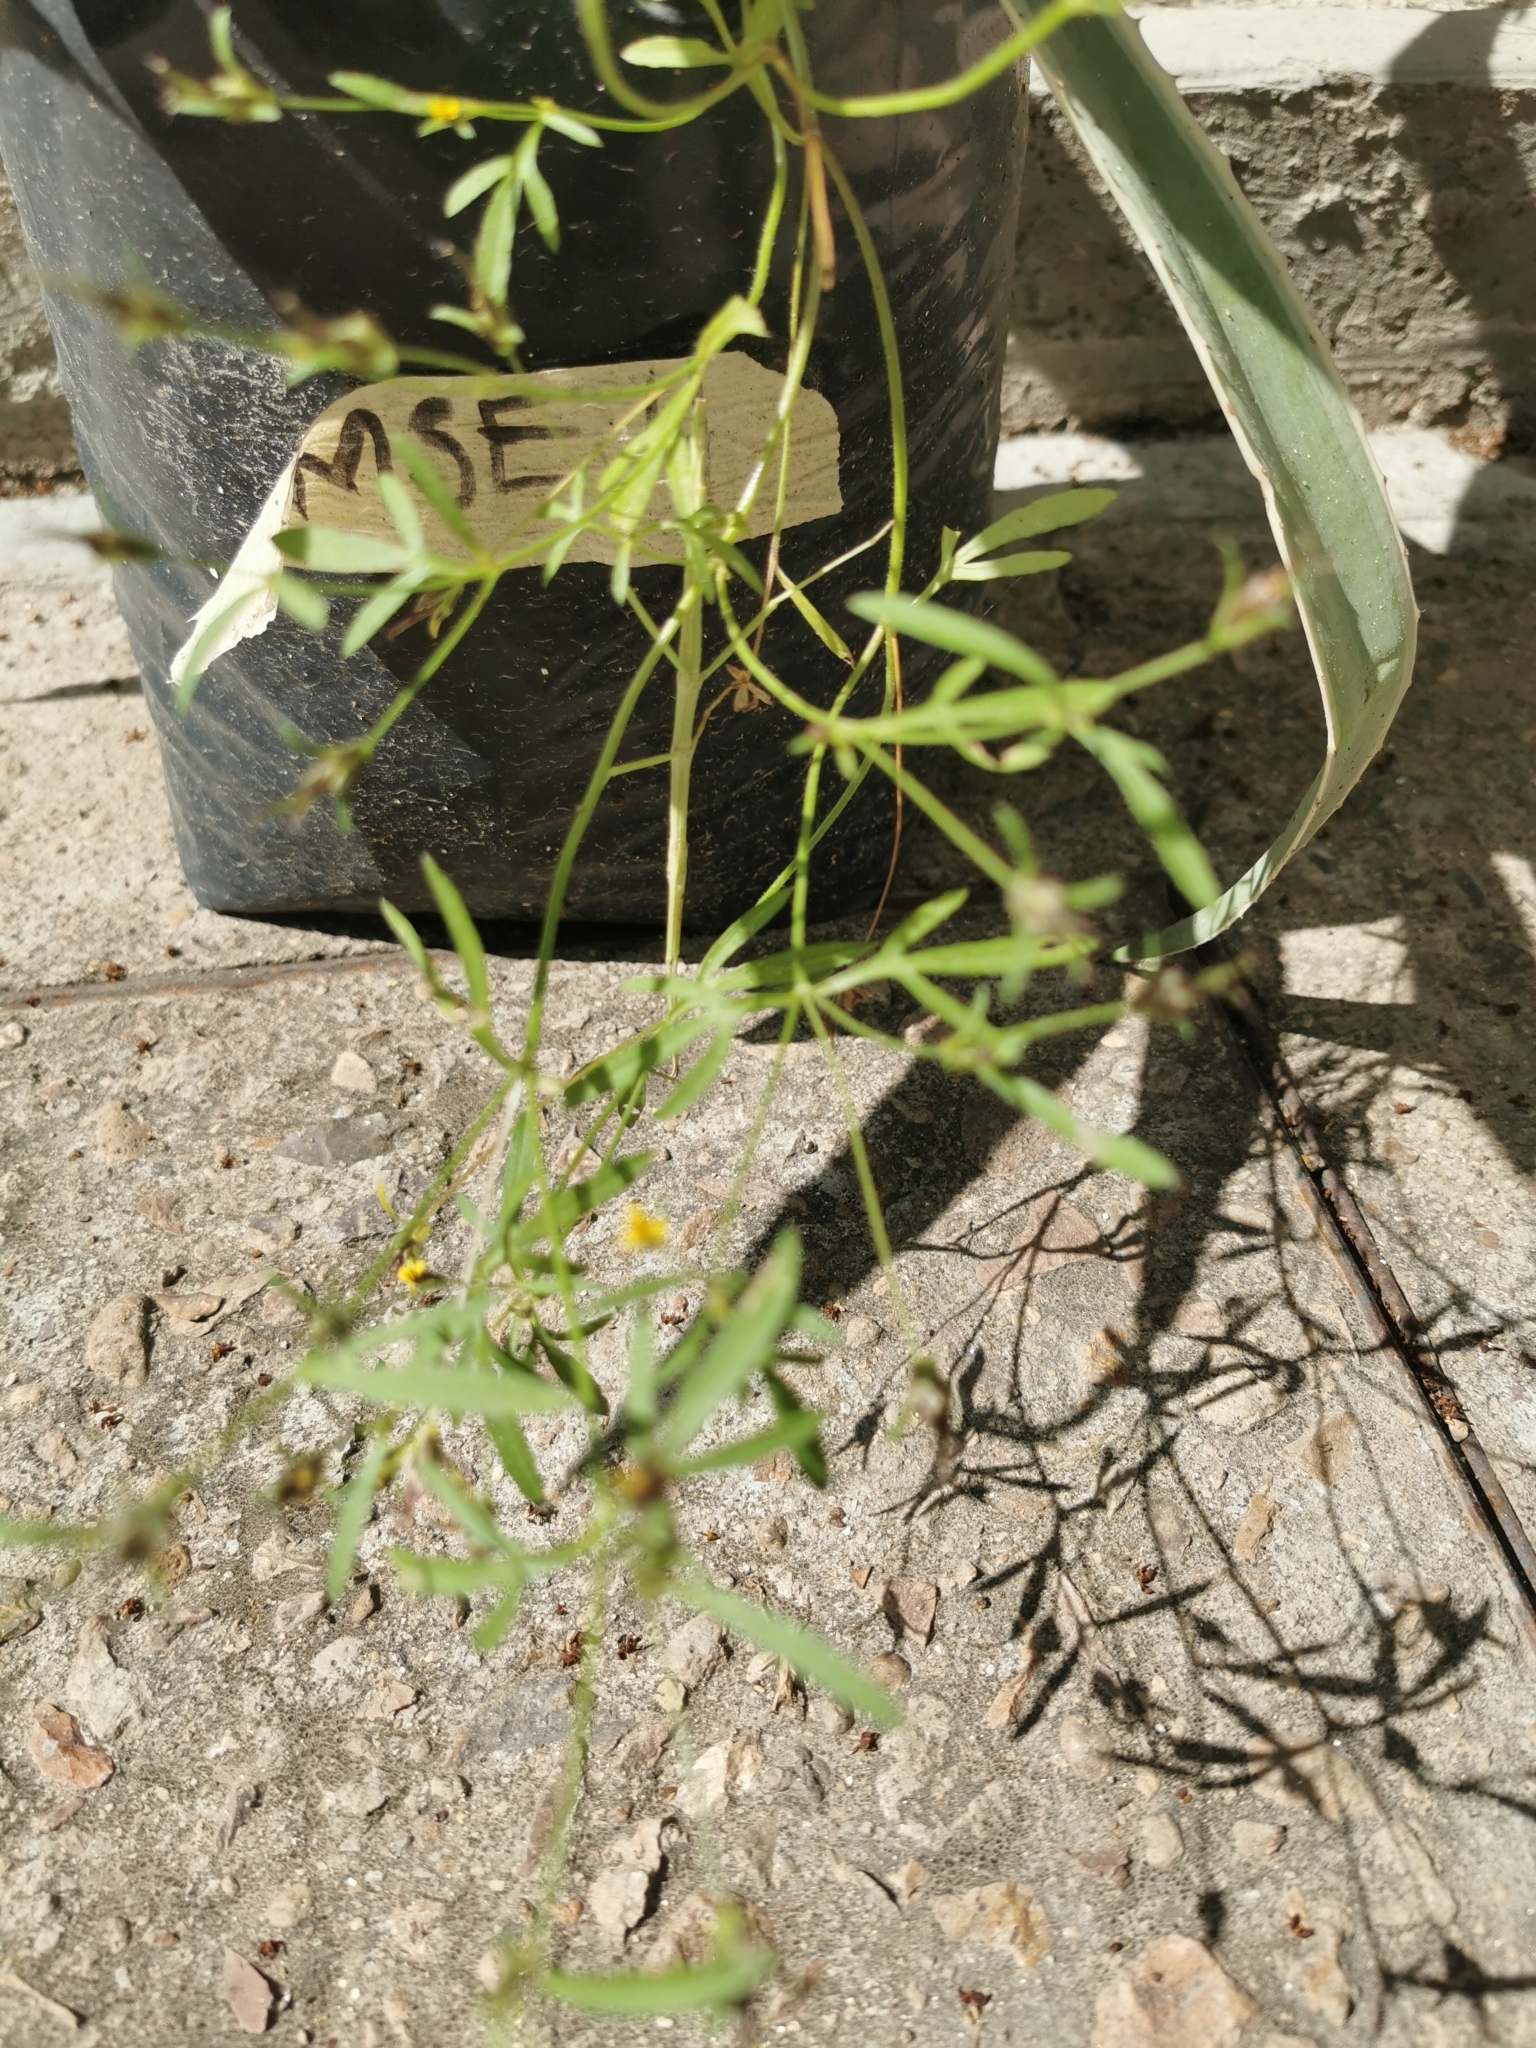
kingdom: Plantae
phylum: Tracheophyta
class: Magnoliopsida
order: Asterales
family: Asteraceae
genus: Heterosperma
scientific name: Heterosperma pinnatum
